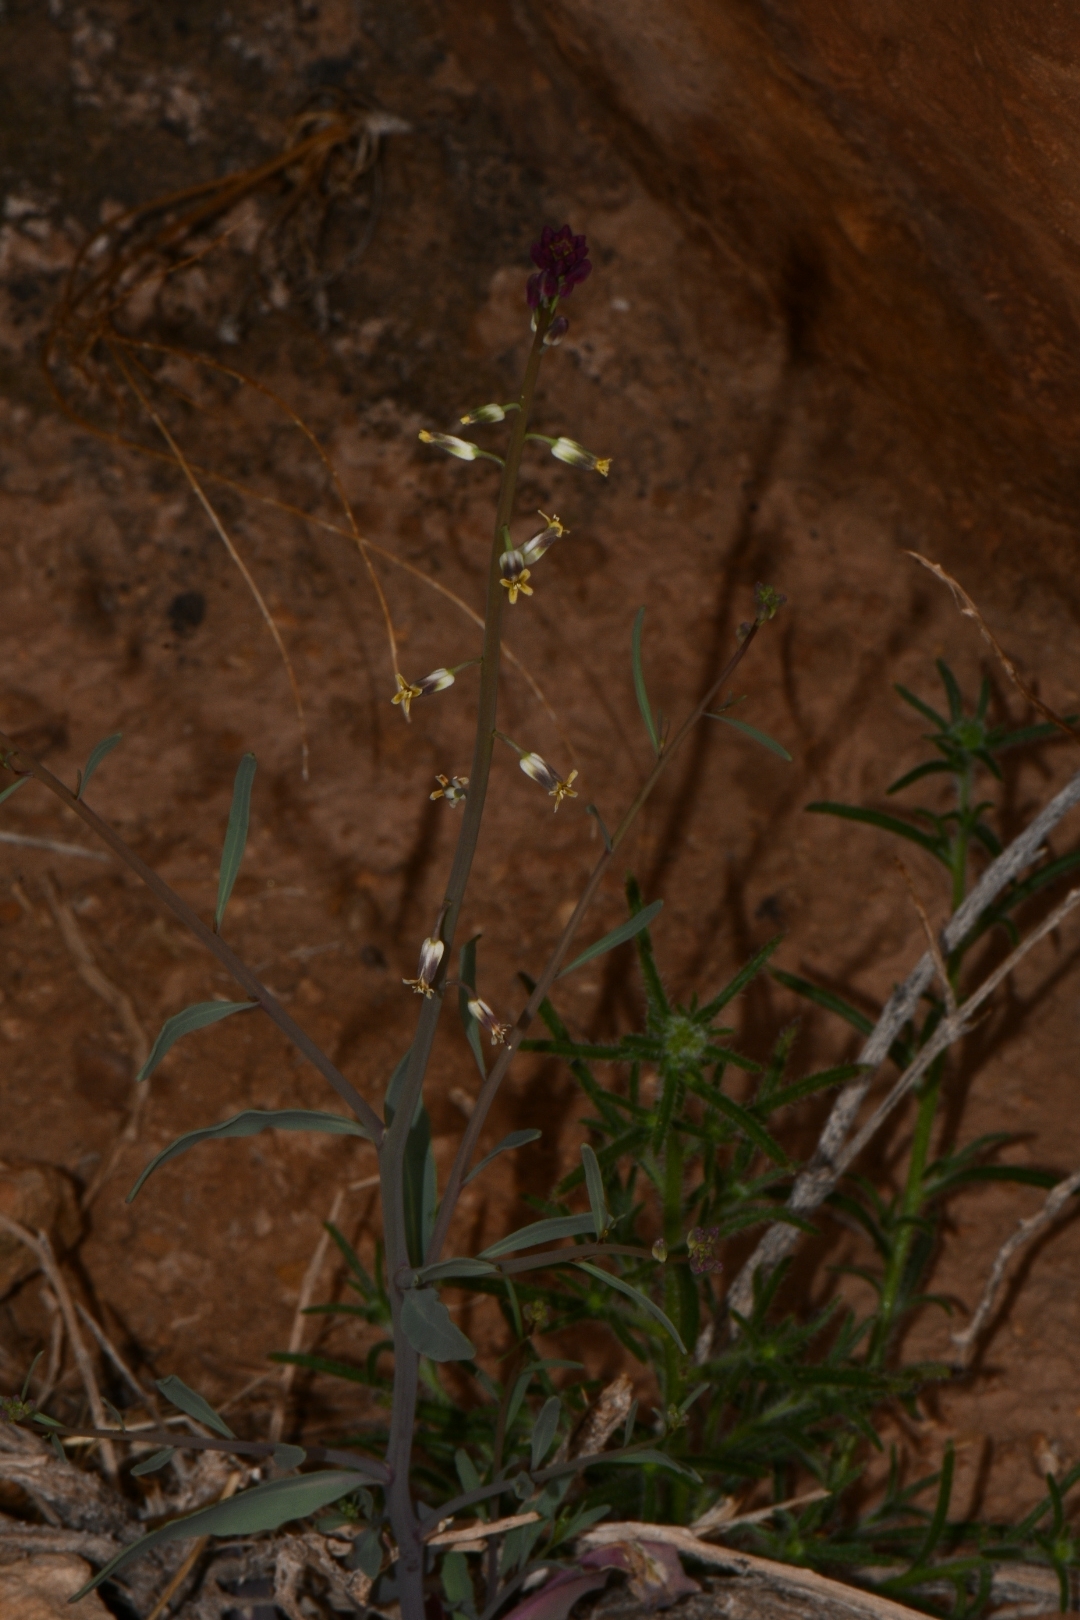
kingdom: Plantae
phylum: Tracheophyta
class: Magnoliopsida
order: Brassicales
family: Brassicaceae
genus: Streptanthus
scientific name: Streptanthus longirostris
